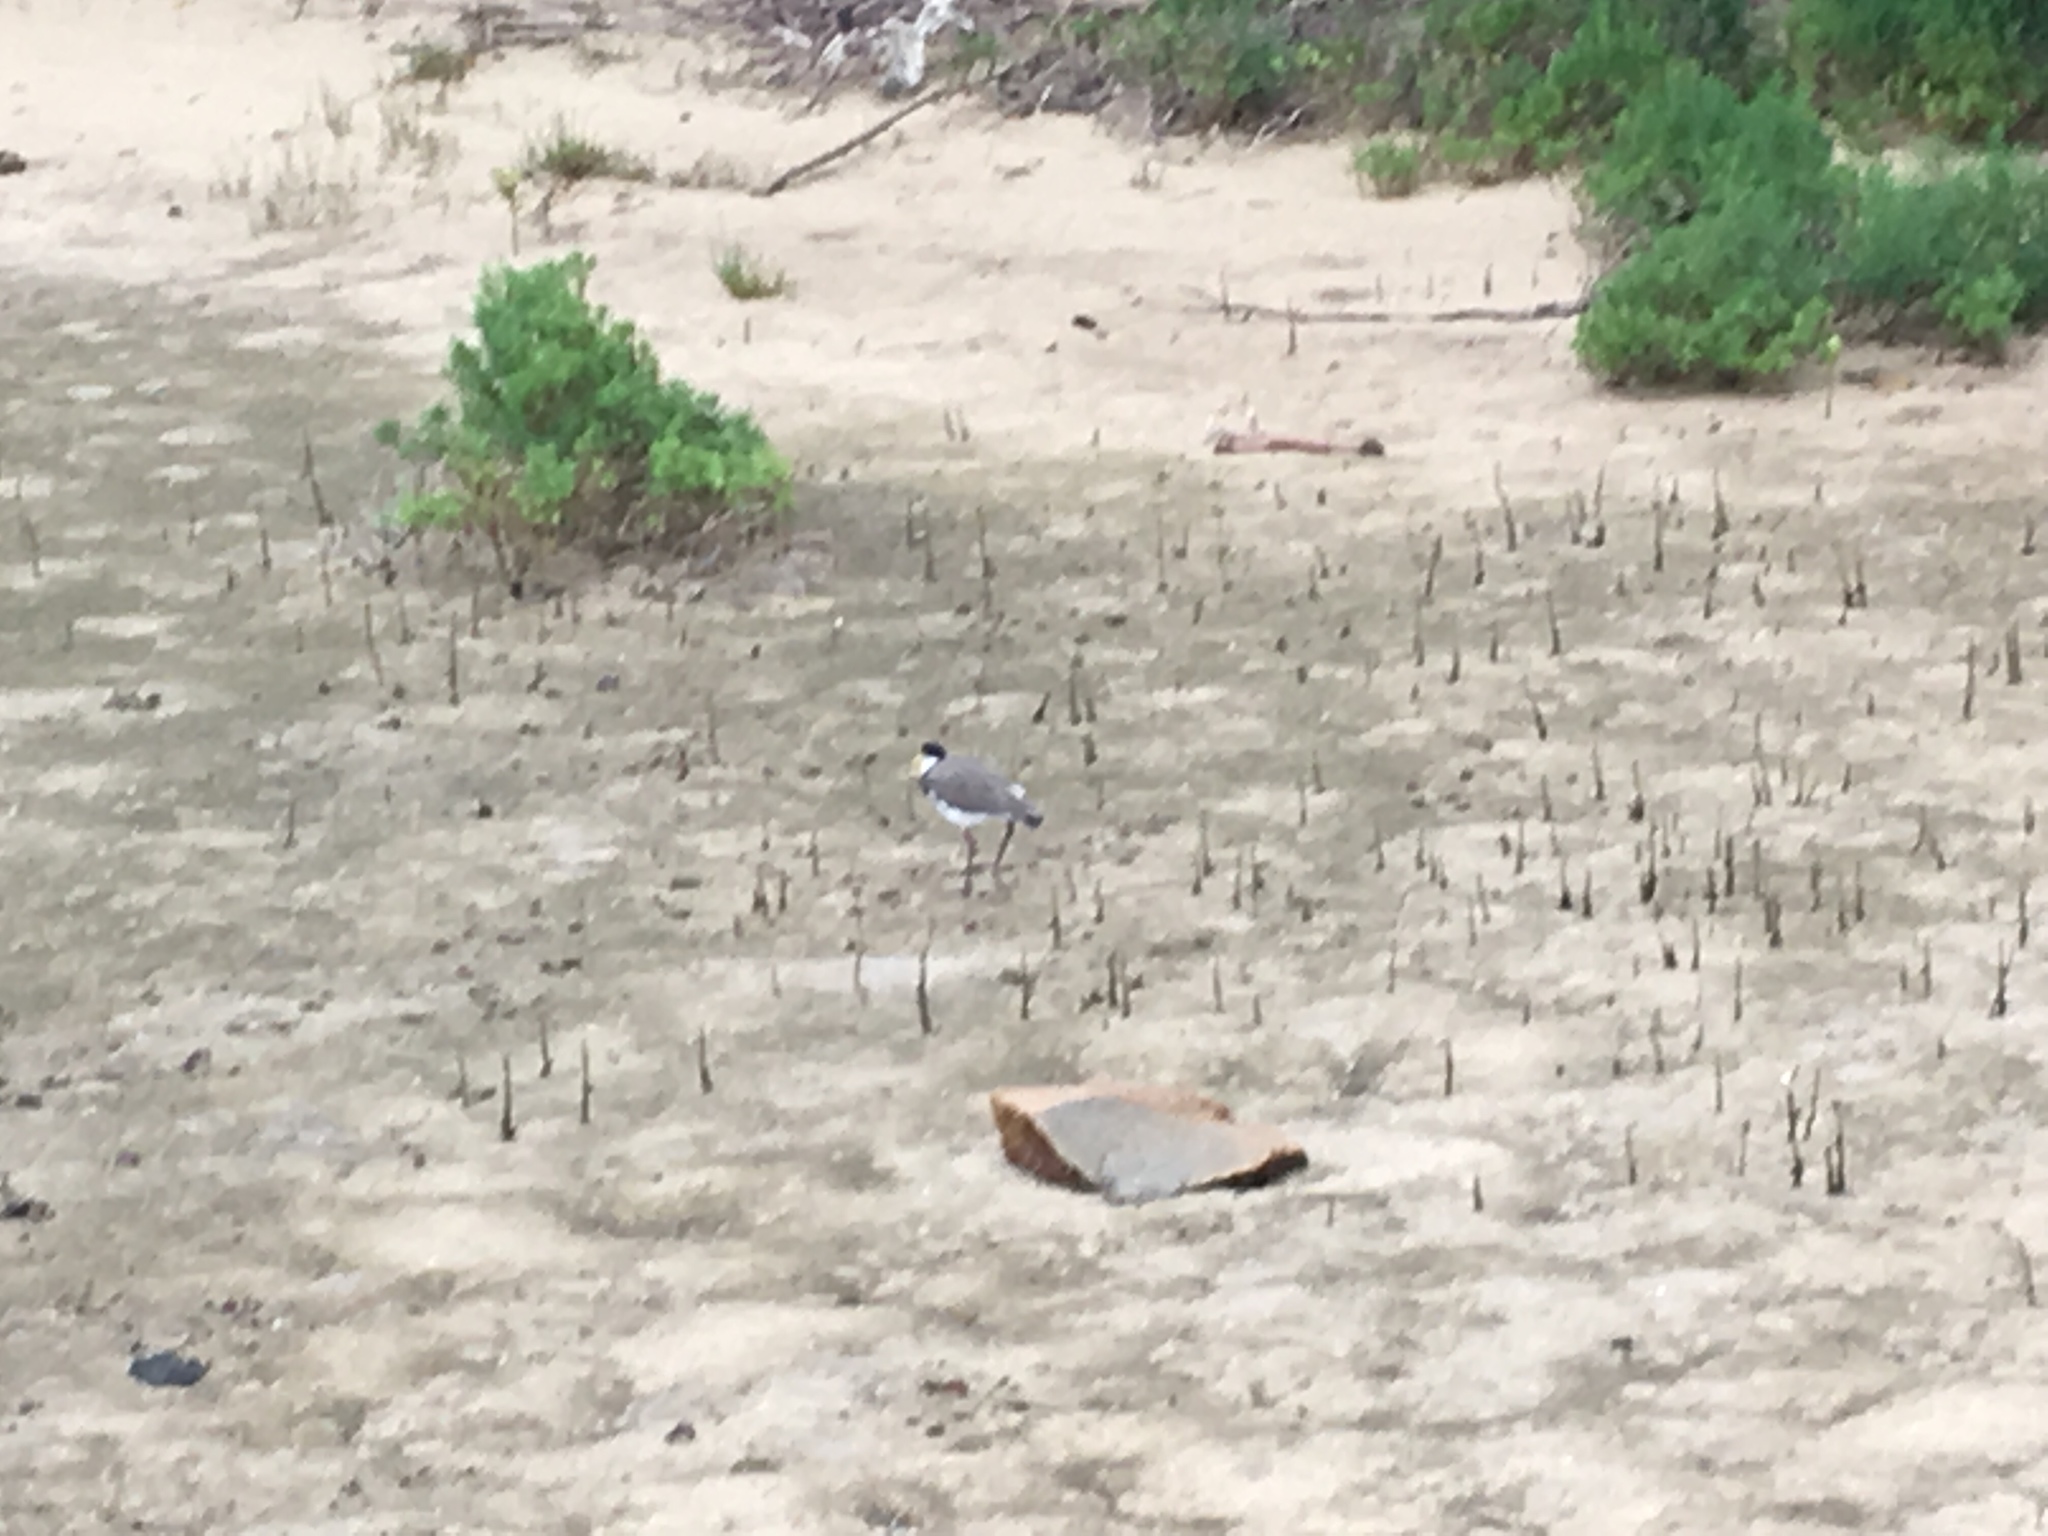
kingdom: Animalia
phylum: Chordata
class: Aves
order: Charadriiformes
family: Charadriidae
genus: Vanellus
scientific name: Vanellus miles
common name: Masked lapwing
